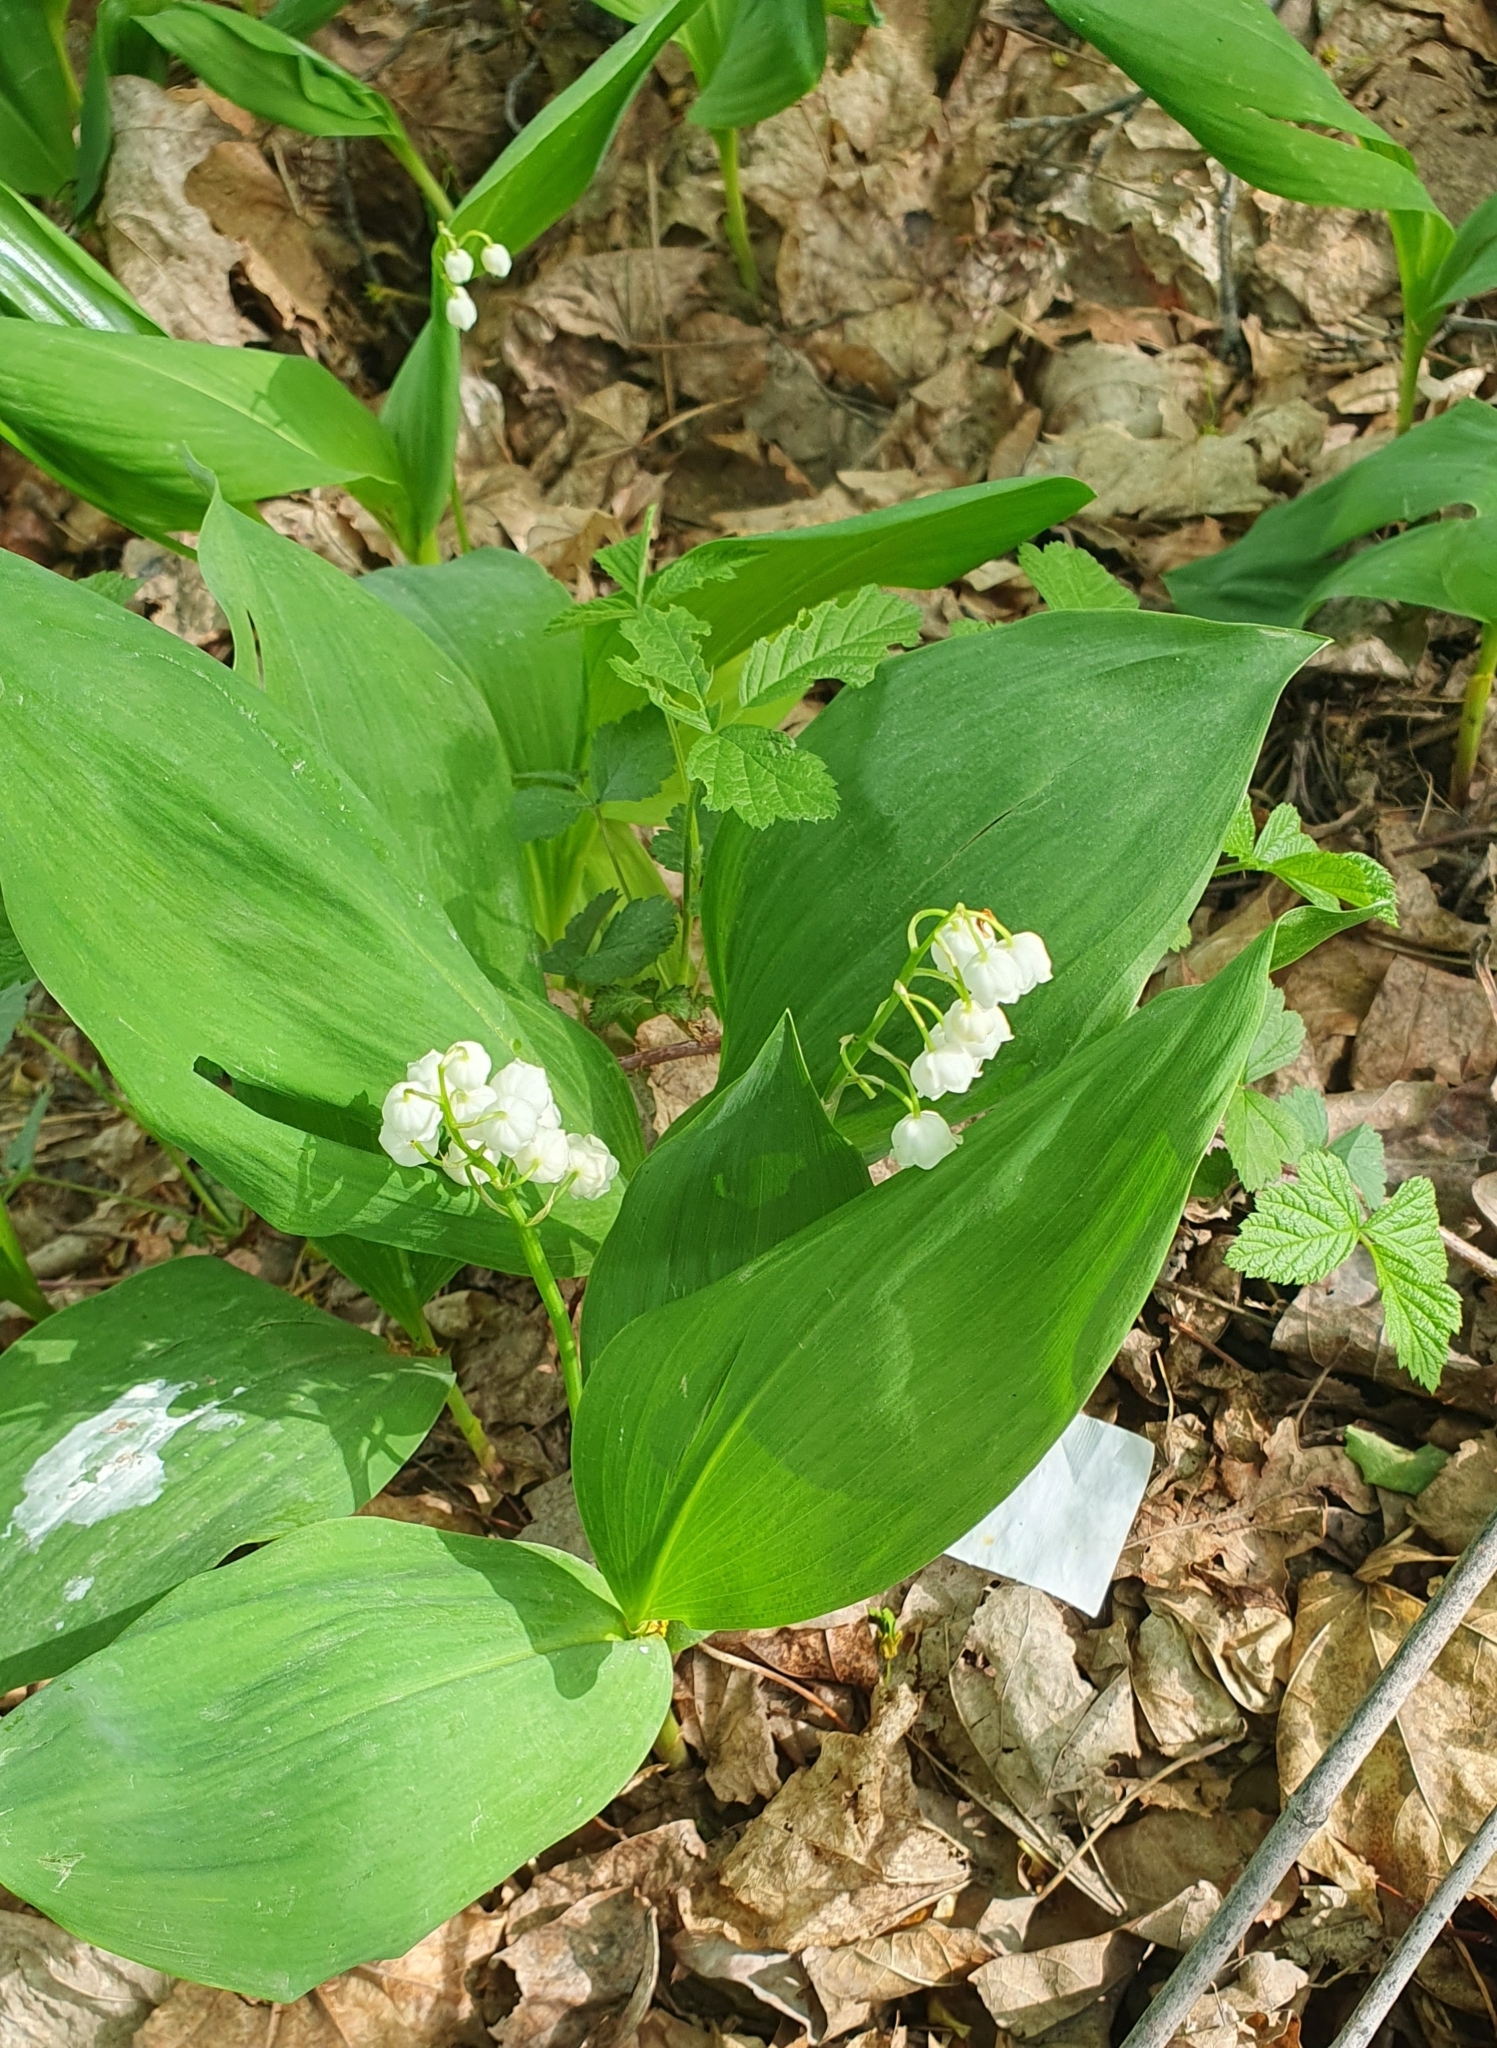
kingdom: Plantae
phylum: Tracheophyta
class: Liliopsida
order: Asparagales
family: Asparagaceae
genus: Convallaria
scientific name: Convallaria majalis
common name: Lily-of-the-valley
